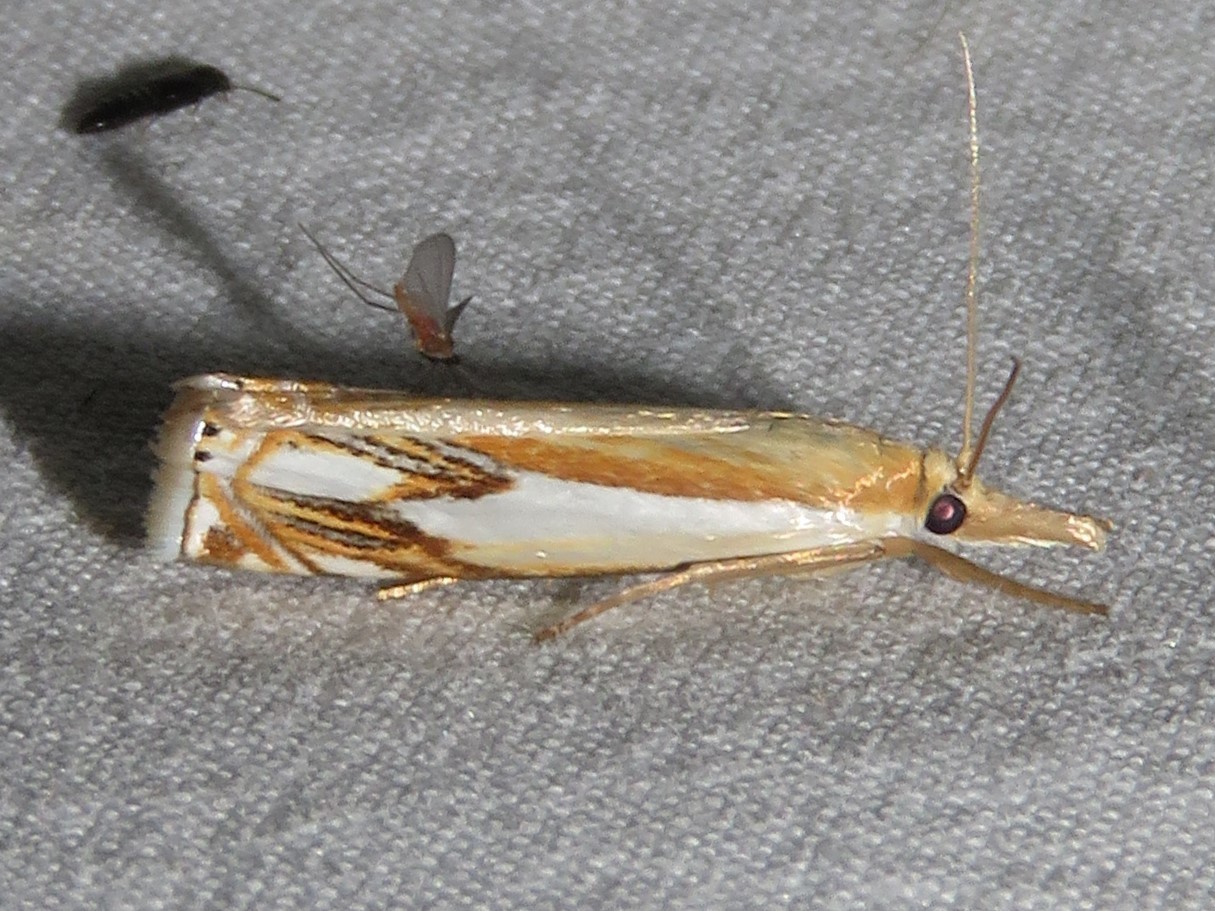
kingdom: Animalia
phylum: Arthropoda
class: Insecta
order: Lepidoptera
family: Crambidae
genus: Crambus
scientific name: Crambus agitatellus
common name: Double-banded grass-veneer
